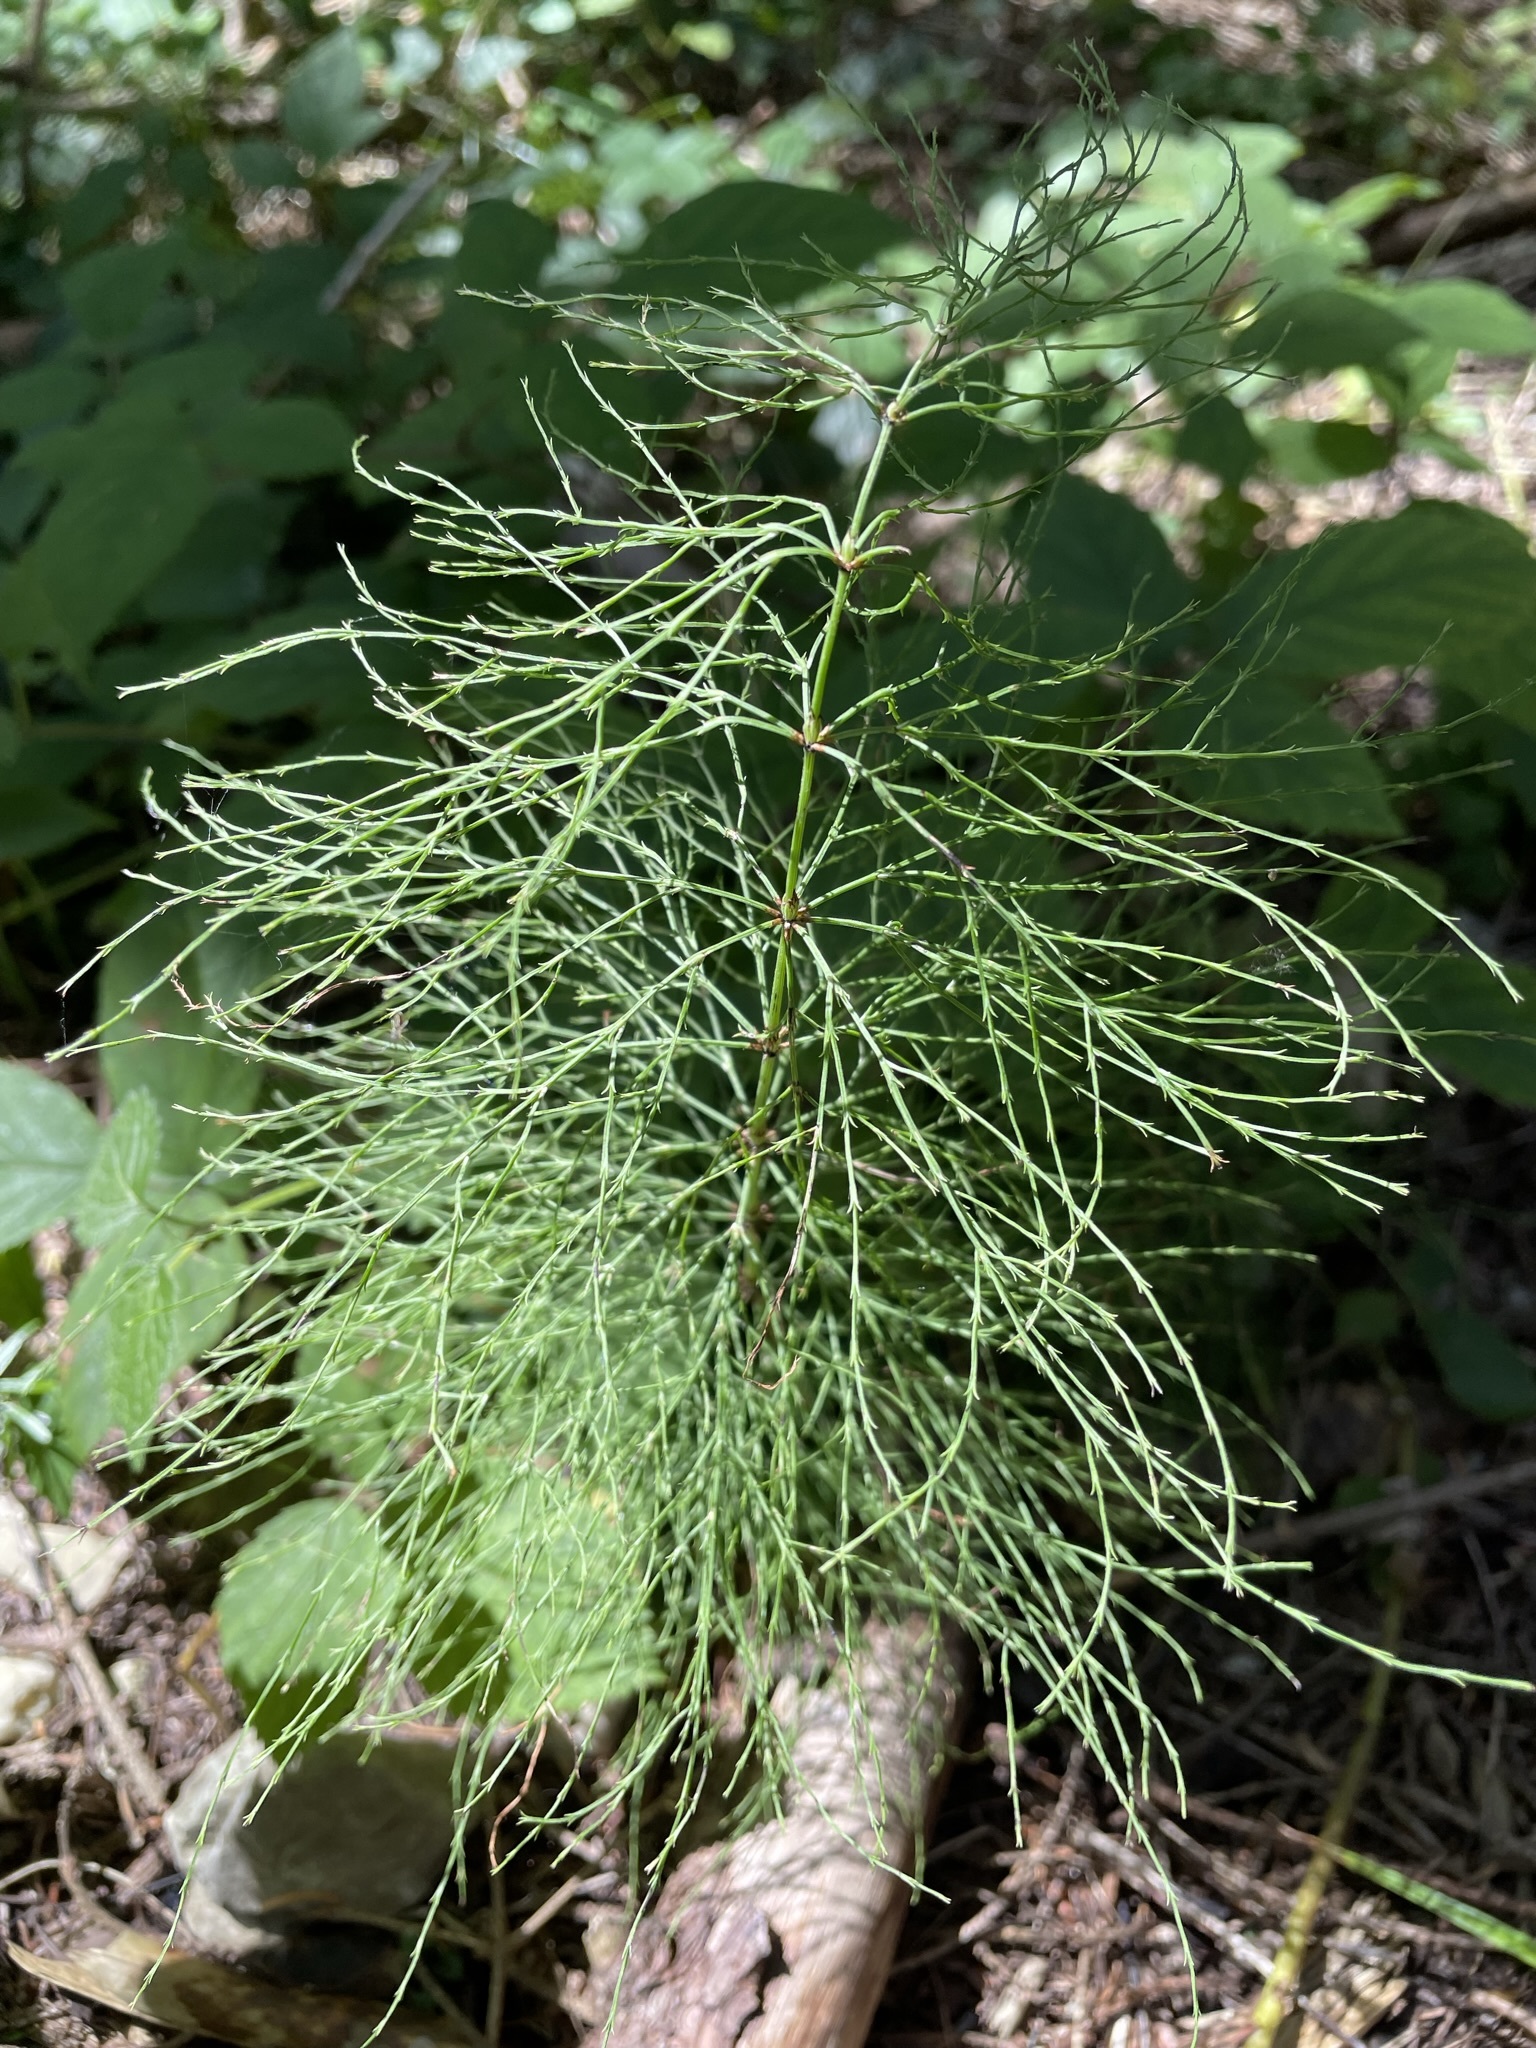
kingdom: Plantae
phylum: Tracheophyta
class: Polypodiopsida
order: Equisetales
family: Equisetaceae
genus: Equisetum
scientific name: Equisetum sylvaticum
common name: Wood horsetail
